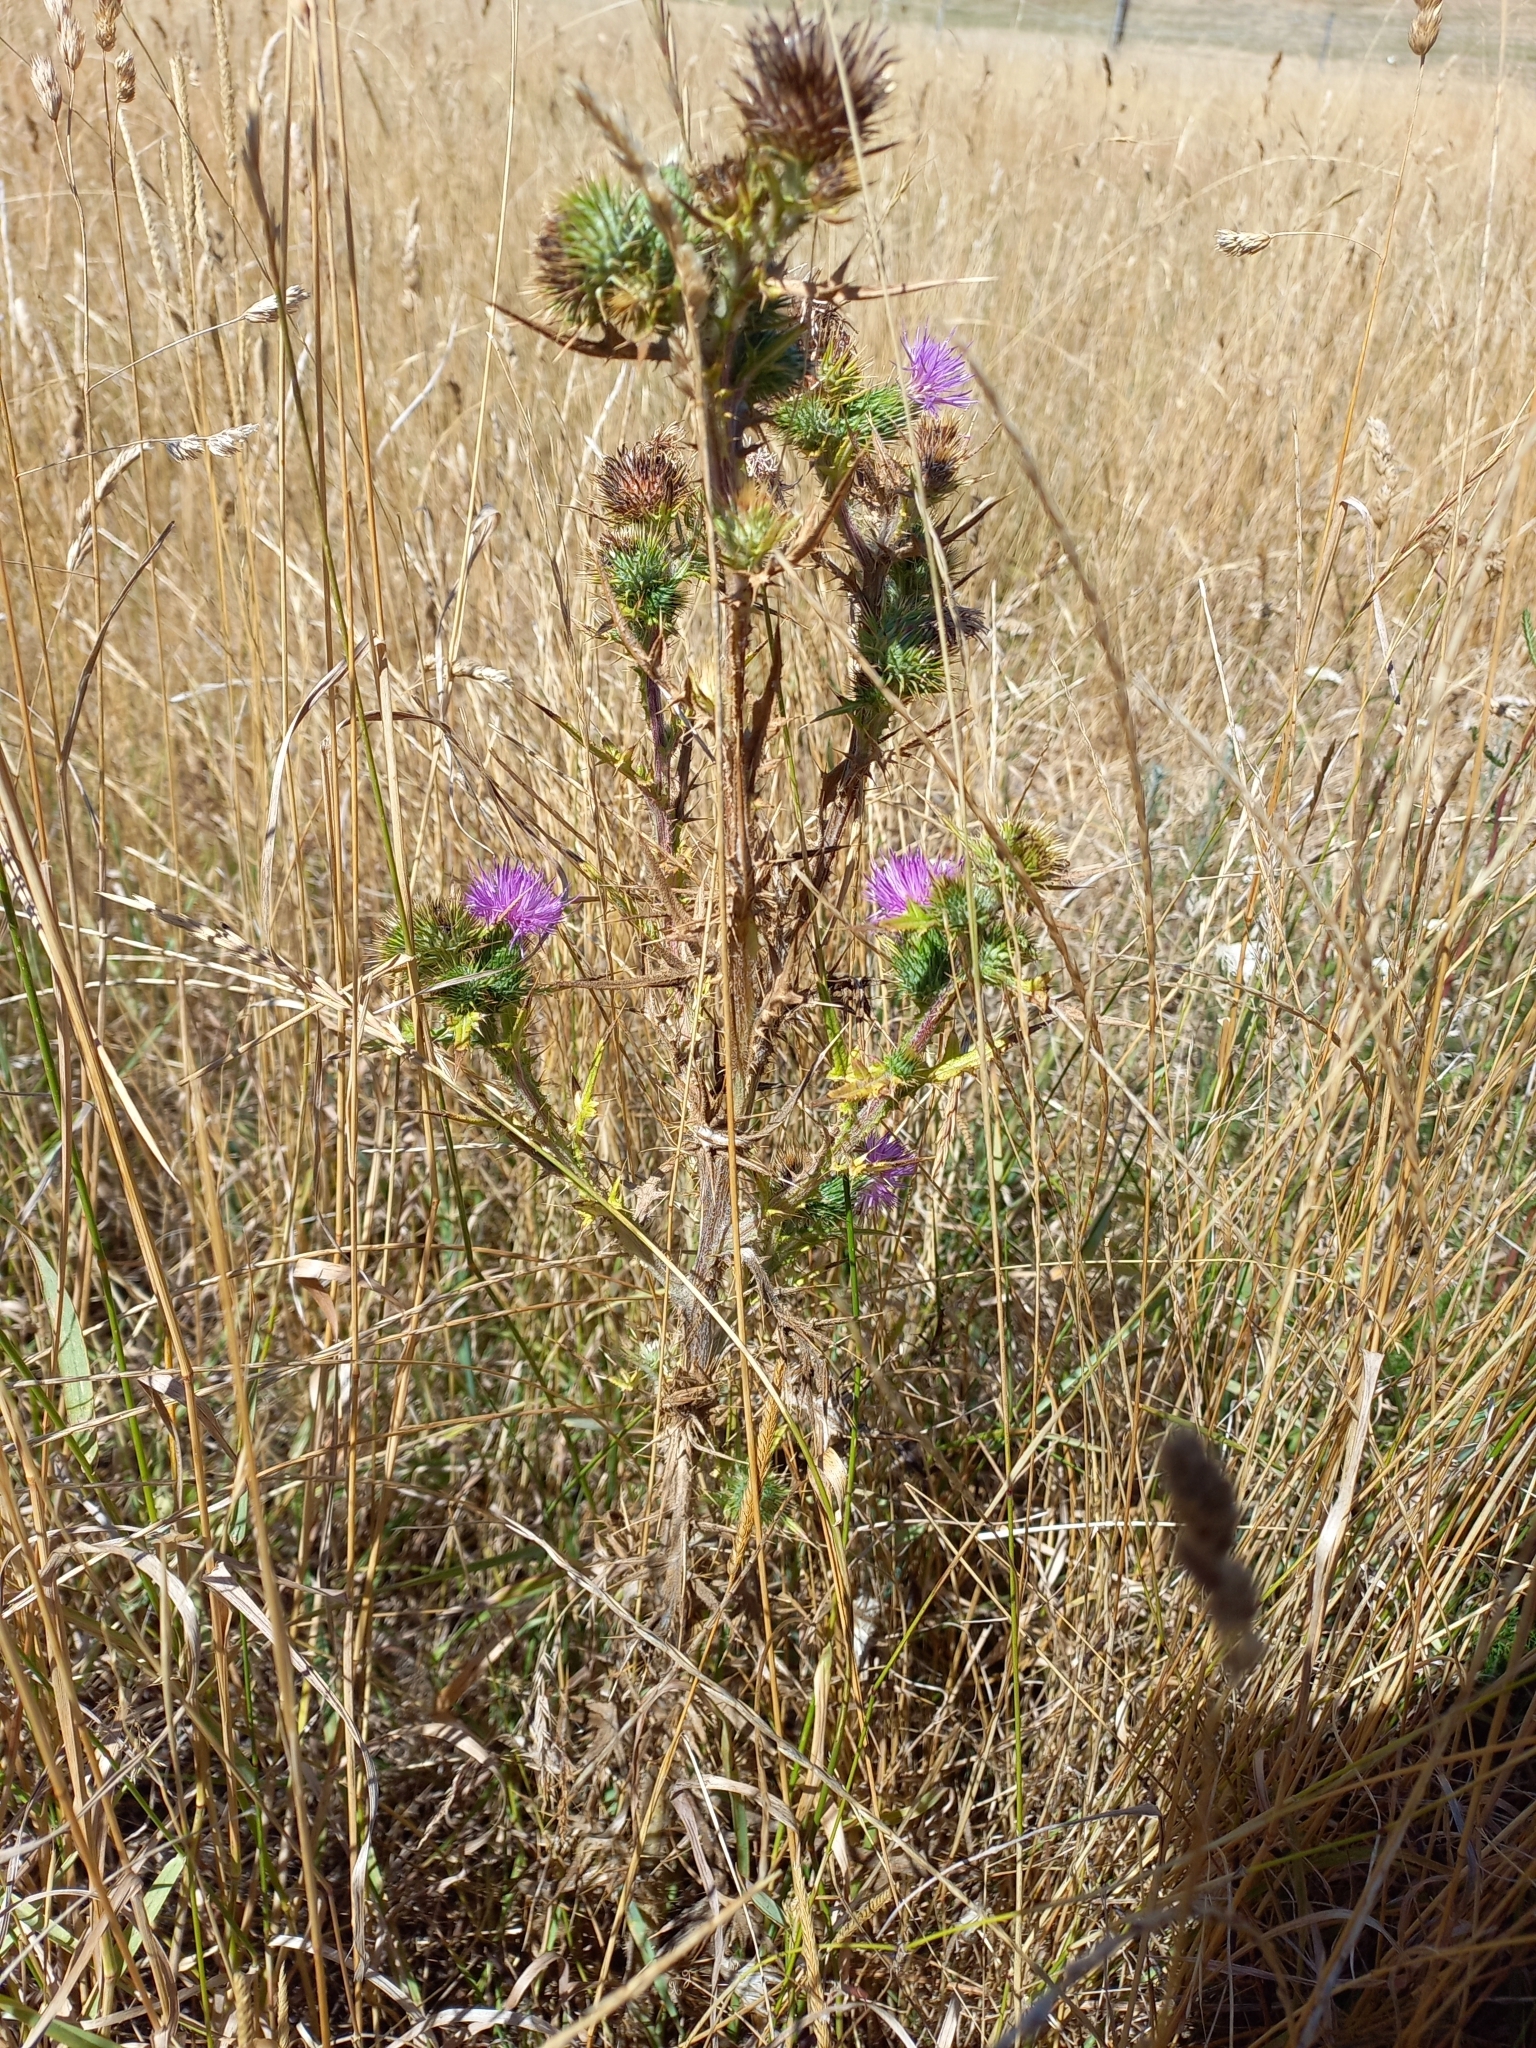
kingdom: Plantae
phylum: Tracheophyta
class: Magnoliopsida
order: Asterales
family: Asteraceae
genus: Cirsium
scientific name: Cirsium vulgare
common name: Bull thistle
